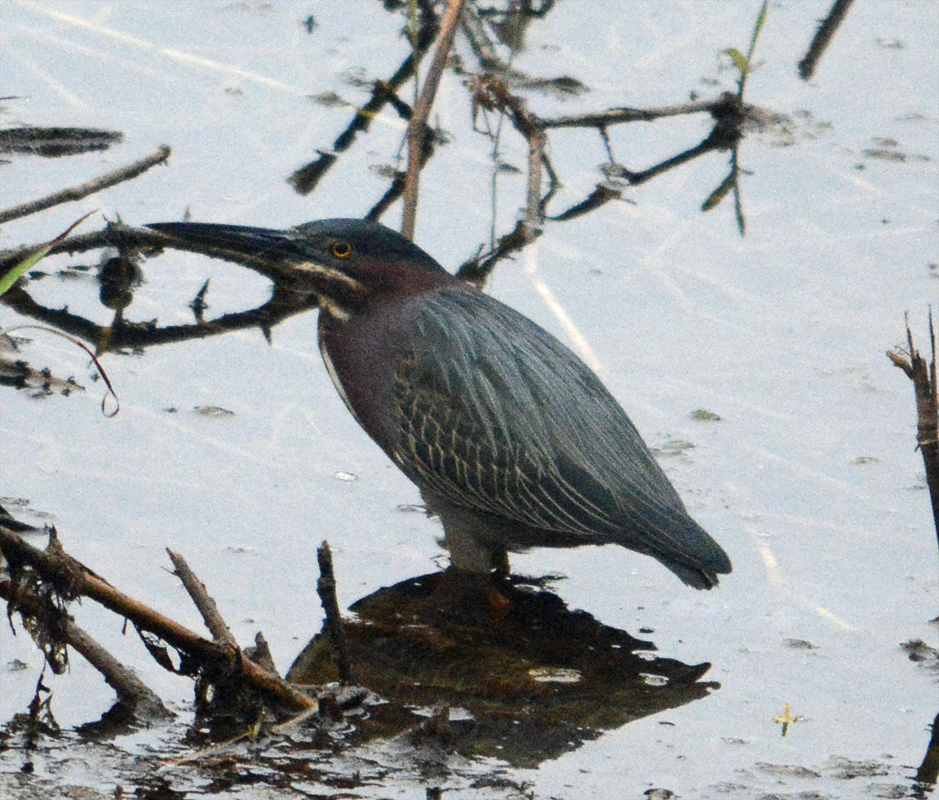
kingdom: Animalia
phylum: Chordata
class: Aves
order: Pelecaniformes
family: Ardeidae
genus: Butorides
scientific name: Butorides virescens
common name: Green heron
